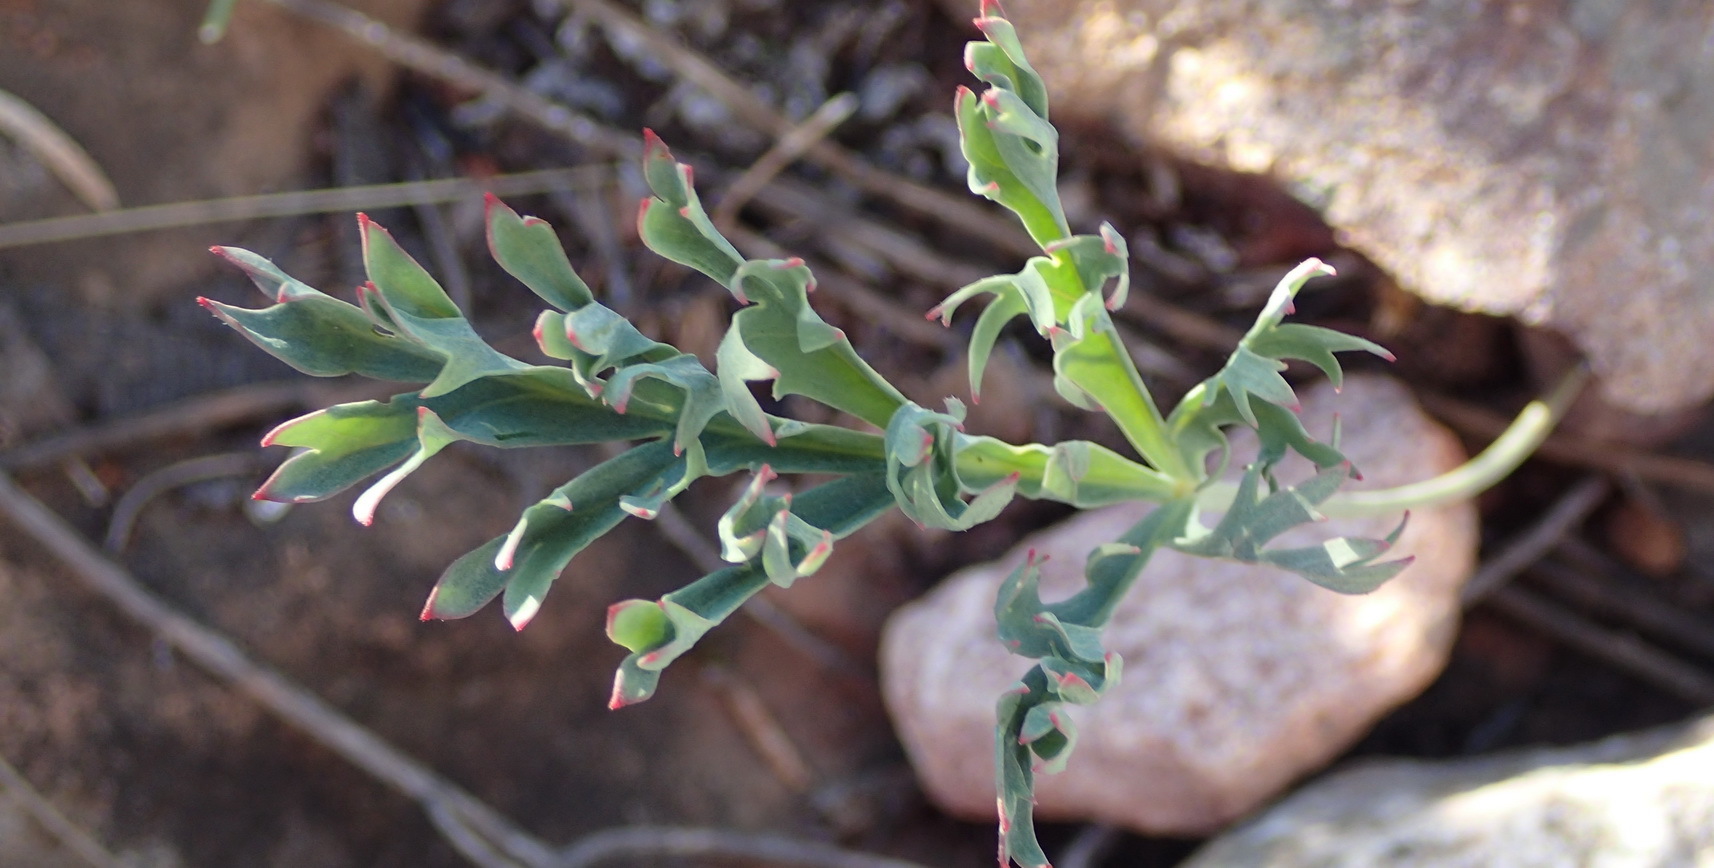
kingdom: Plantae
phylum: Tracheophyta
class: Magnoliopsida
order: Geraniales
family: Geraniaceae
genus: Pelargonium
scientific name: Pelargonium pillansii
